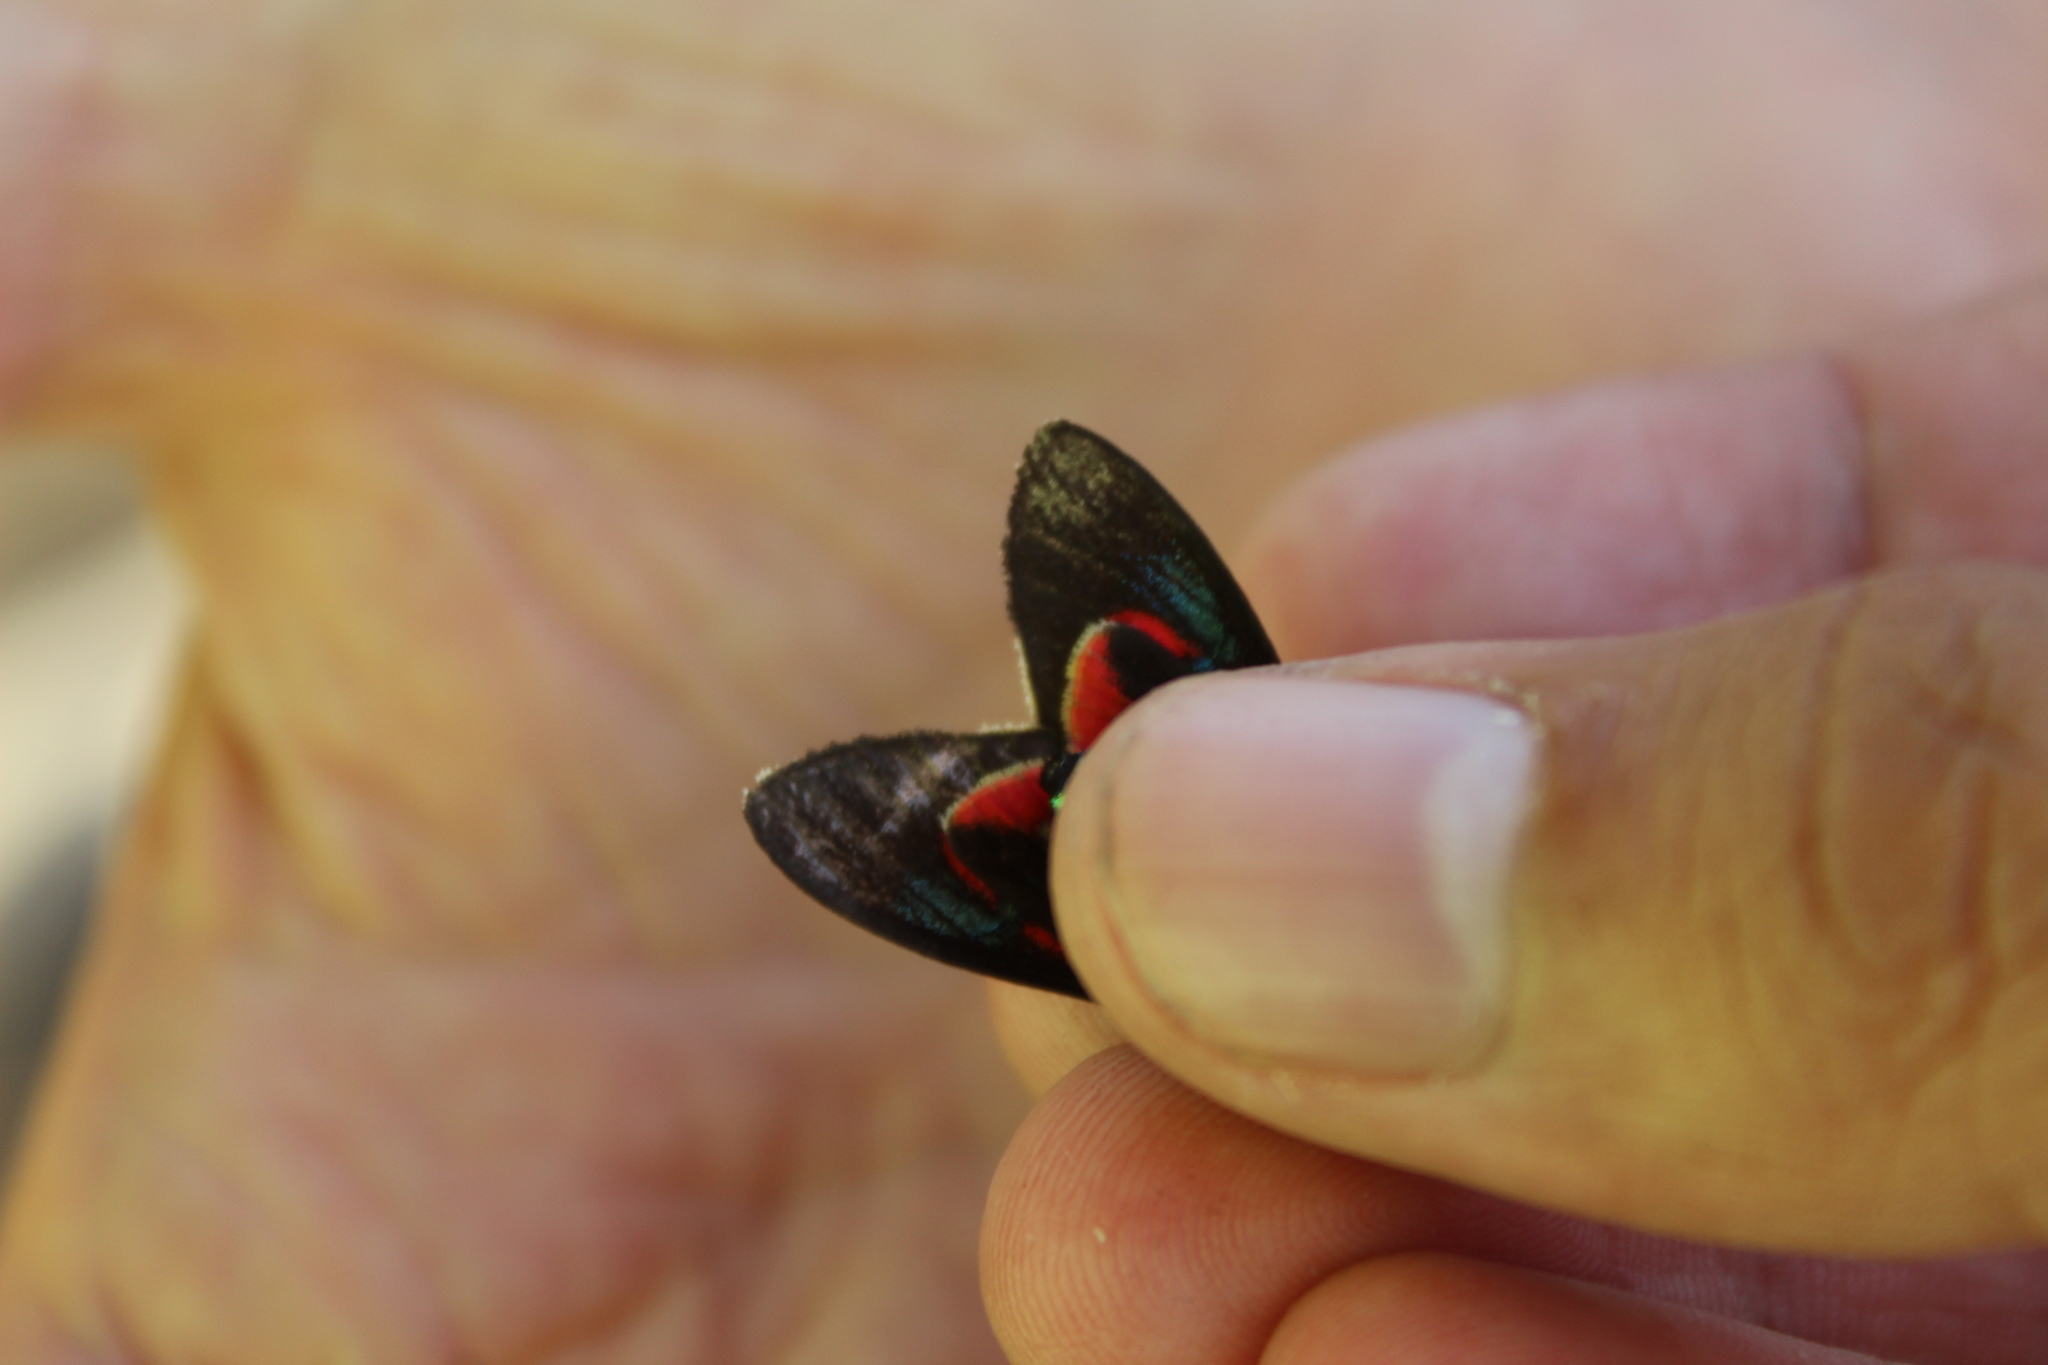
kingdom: Animalia
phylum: Arthropoda
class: Insecta
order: Lepidoptera
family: Erebidae
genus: Cyanopepla
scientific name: Cyanopepla micans
